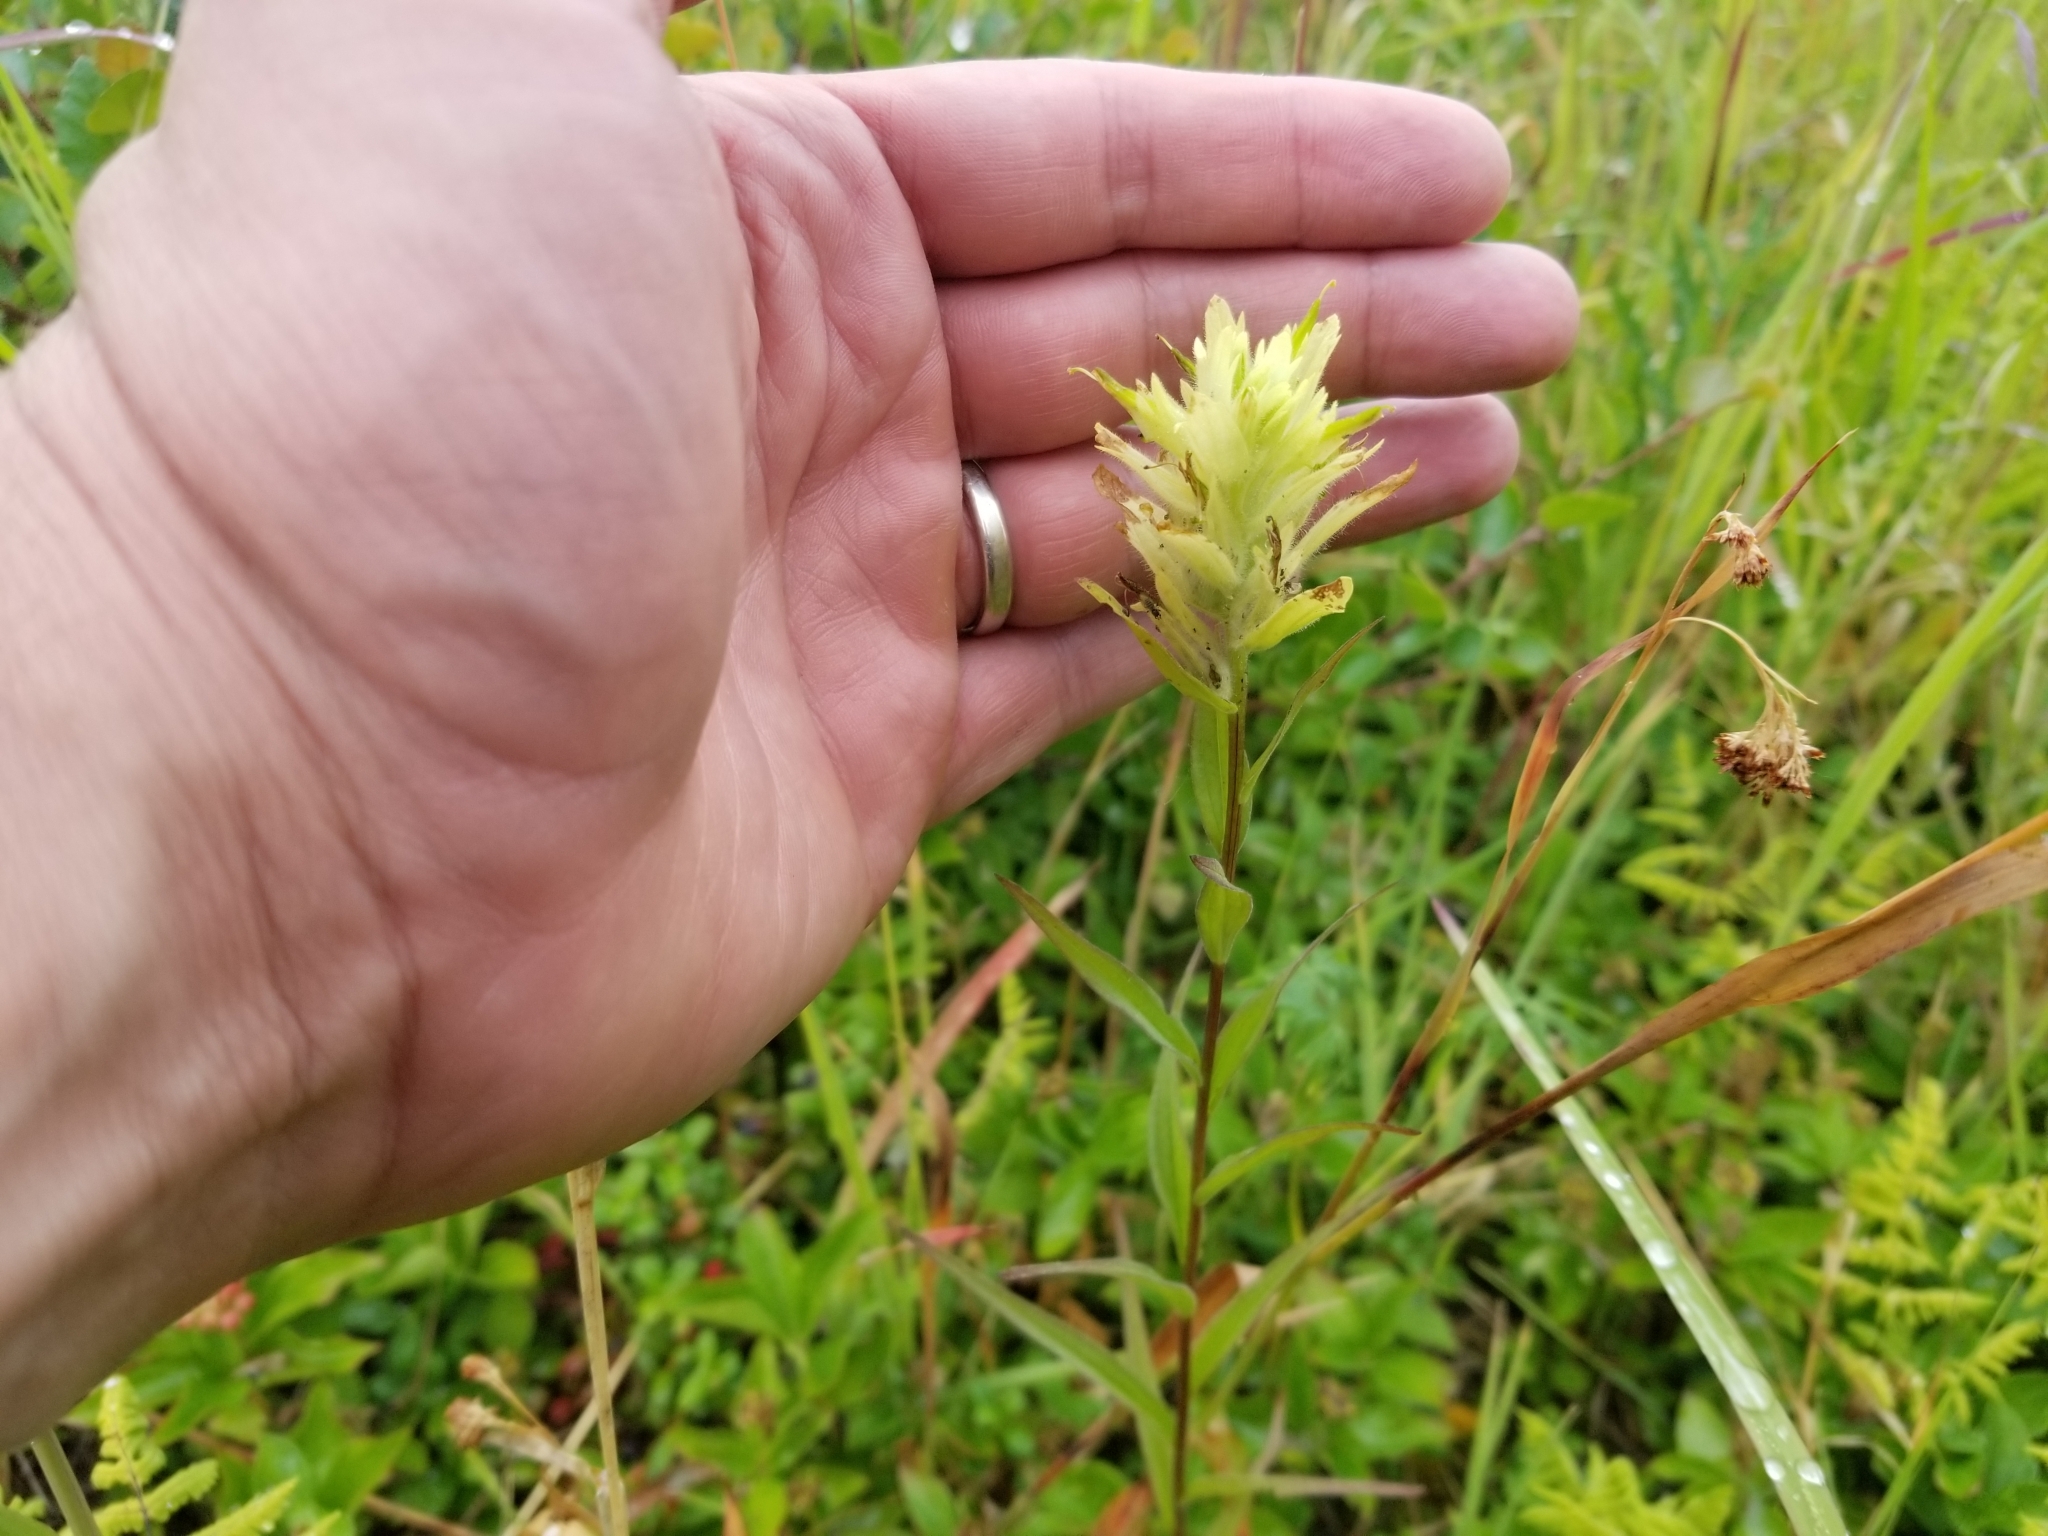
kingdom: Plantae
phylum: Tracheophyta
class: Magnoliopsida
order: Lamiales
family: Orobanchaceae
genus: Castilleja
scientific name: Castilleja unalaschcensis
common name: Unalaska paintbrush
